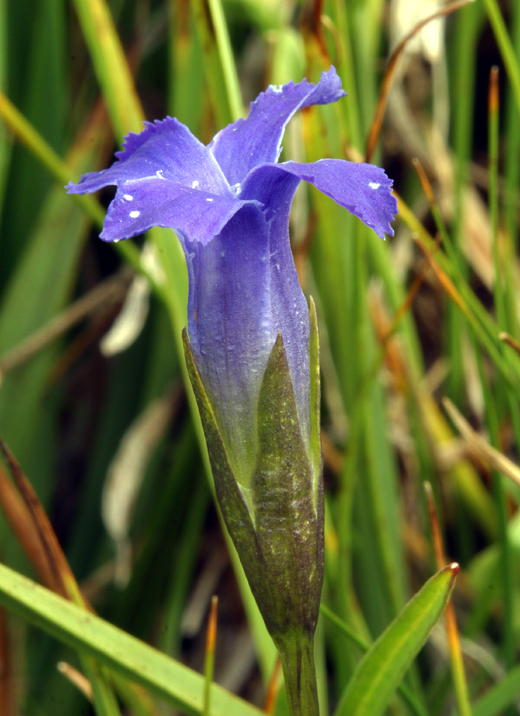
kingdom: Plantae
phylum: Tracheophyta
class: Magnoliopsida
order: Gentianales
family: Gentianaceae
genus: Gentianopsis
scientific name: Gentianopsis simplex
